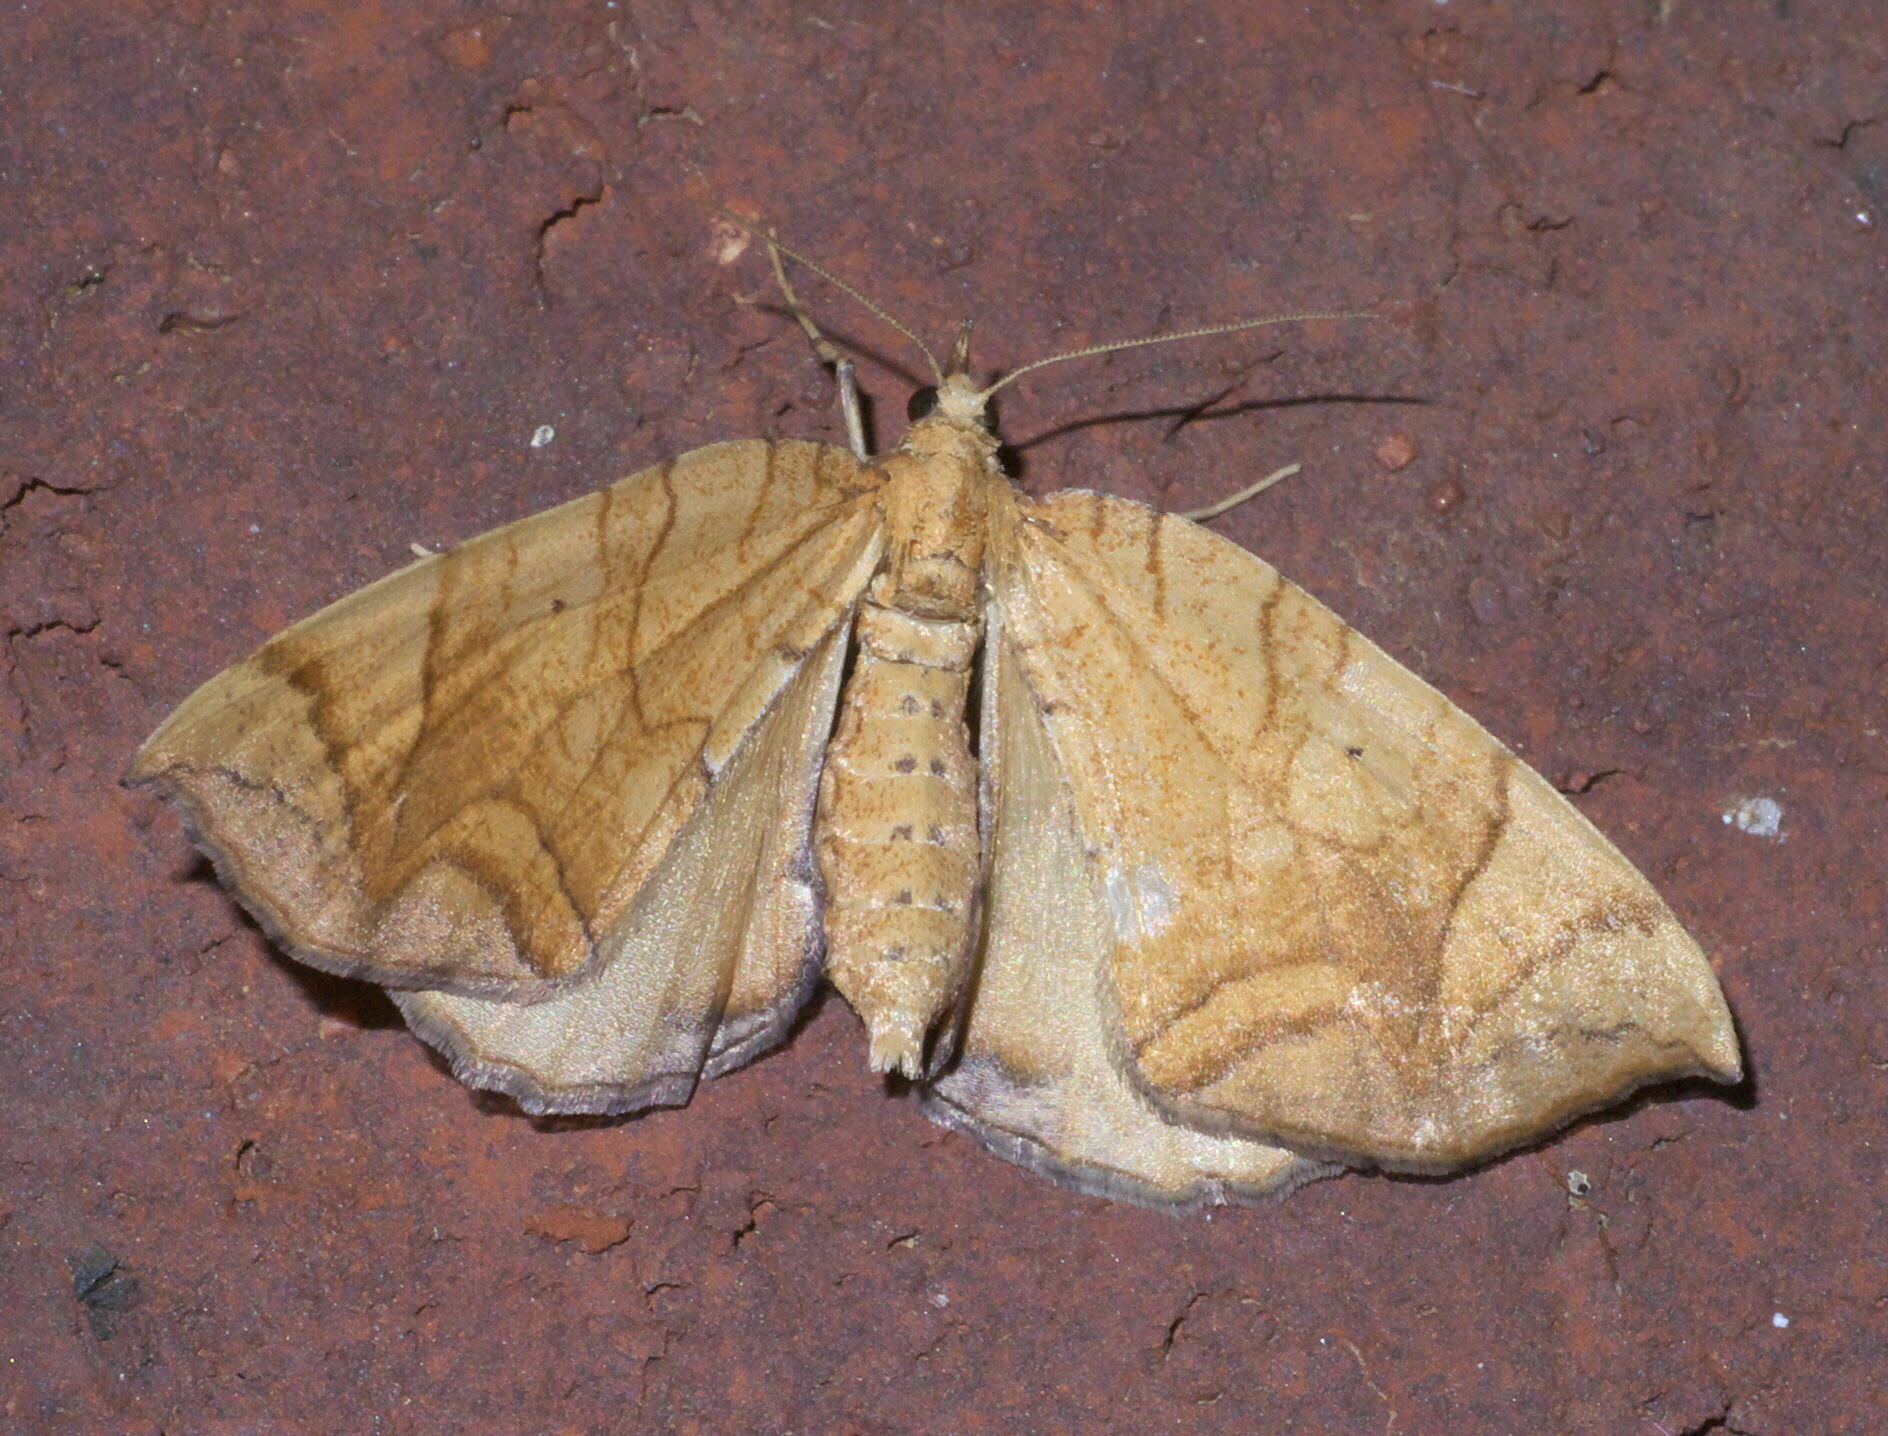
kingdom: Animalia
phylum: Arthropoda
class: Insecta
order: Lepidoptera
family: Geometridae
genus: Eulithis
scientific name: Eulithis
